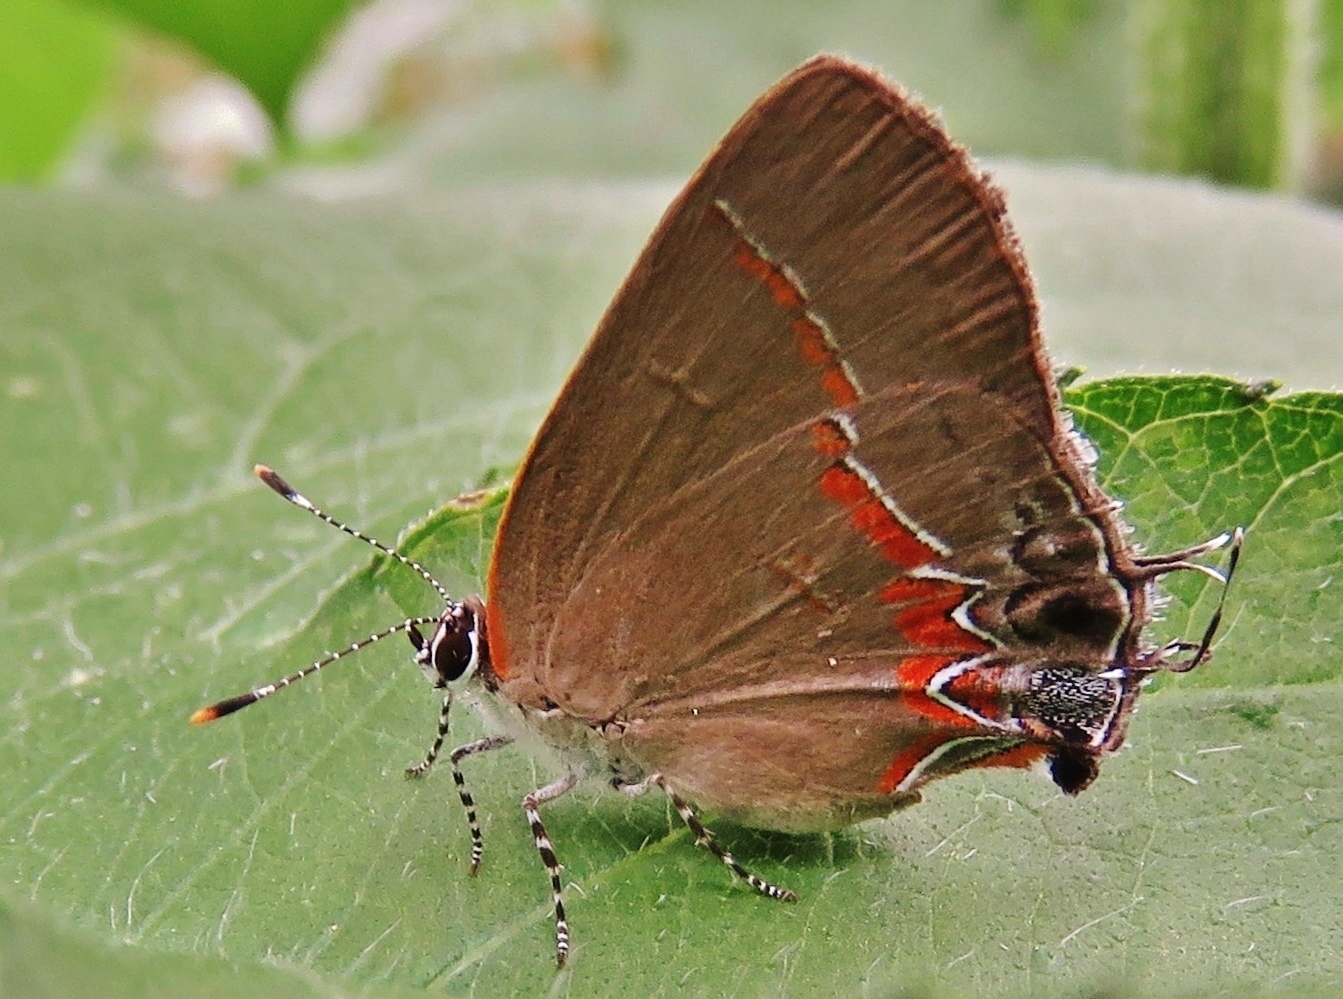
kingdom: Animalia
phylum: Arthropoda
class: Insecta
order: Lepidoptera
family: Lycaenidae
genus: Calycopis
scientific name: Calycopis cecrops
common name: Red-banded hairstreak
